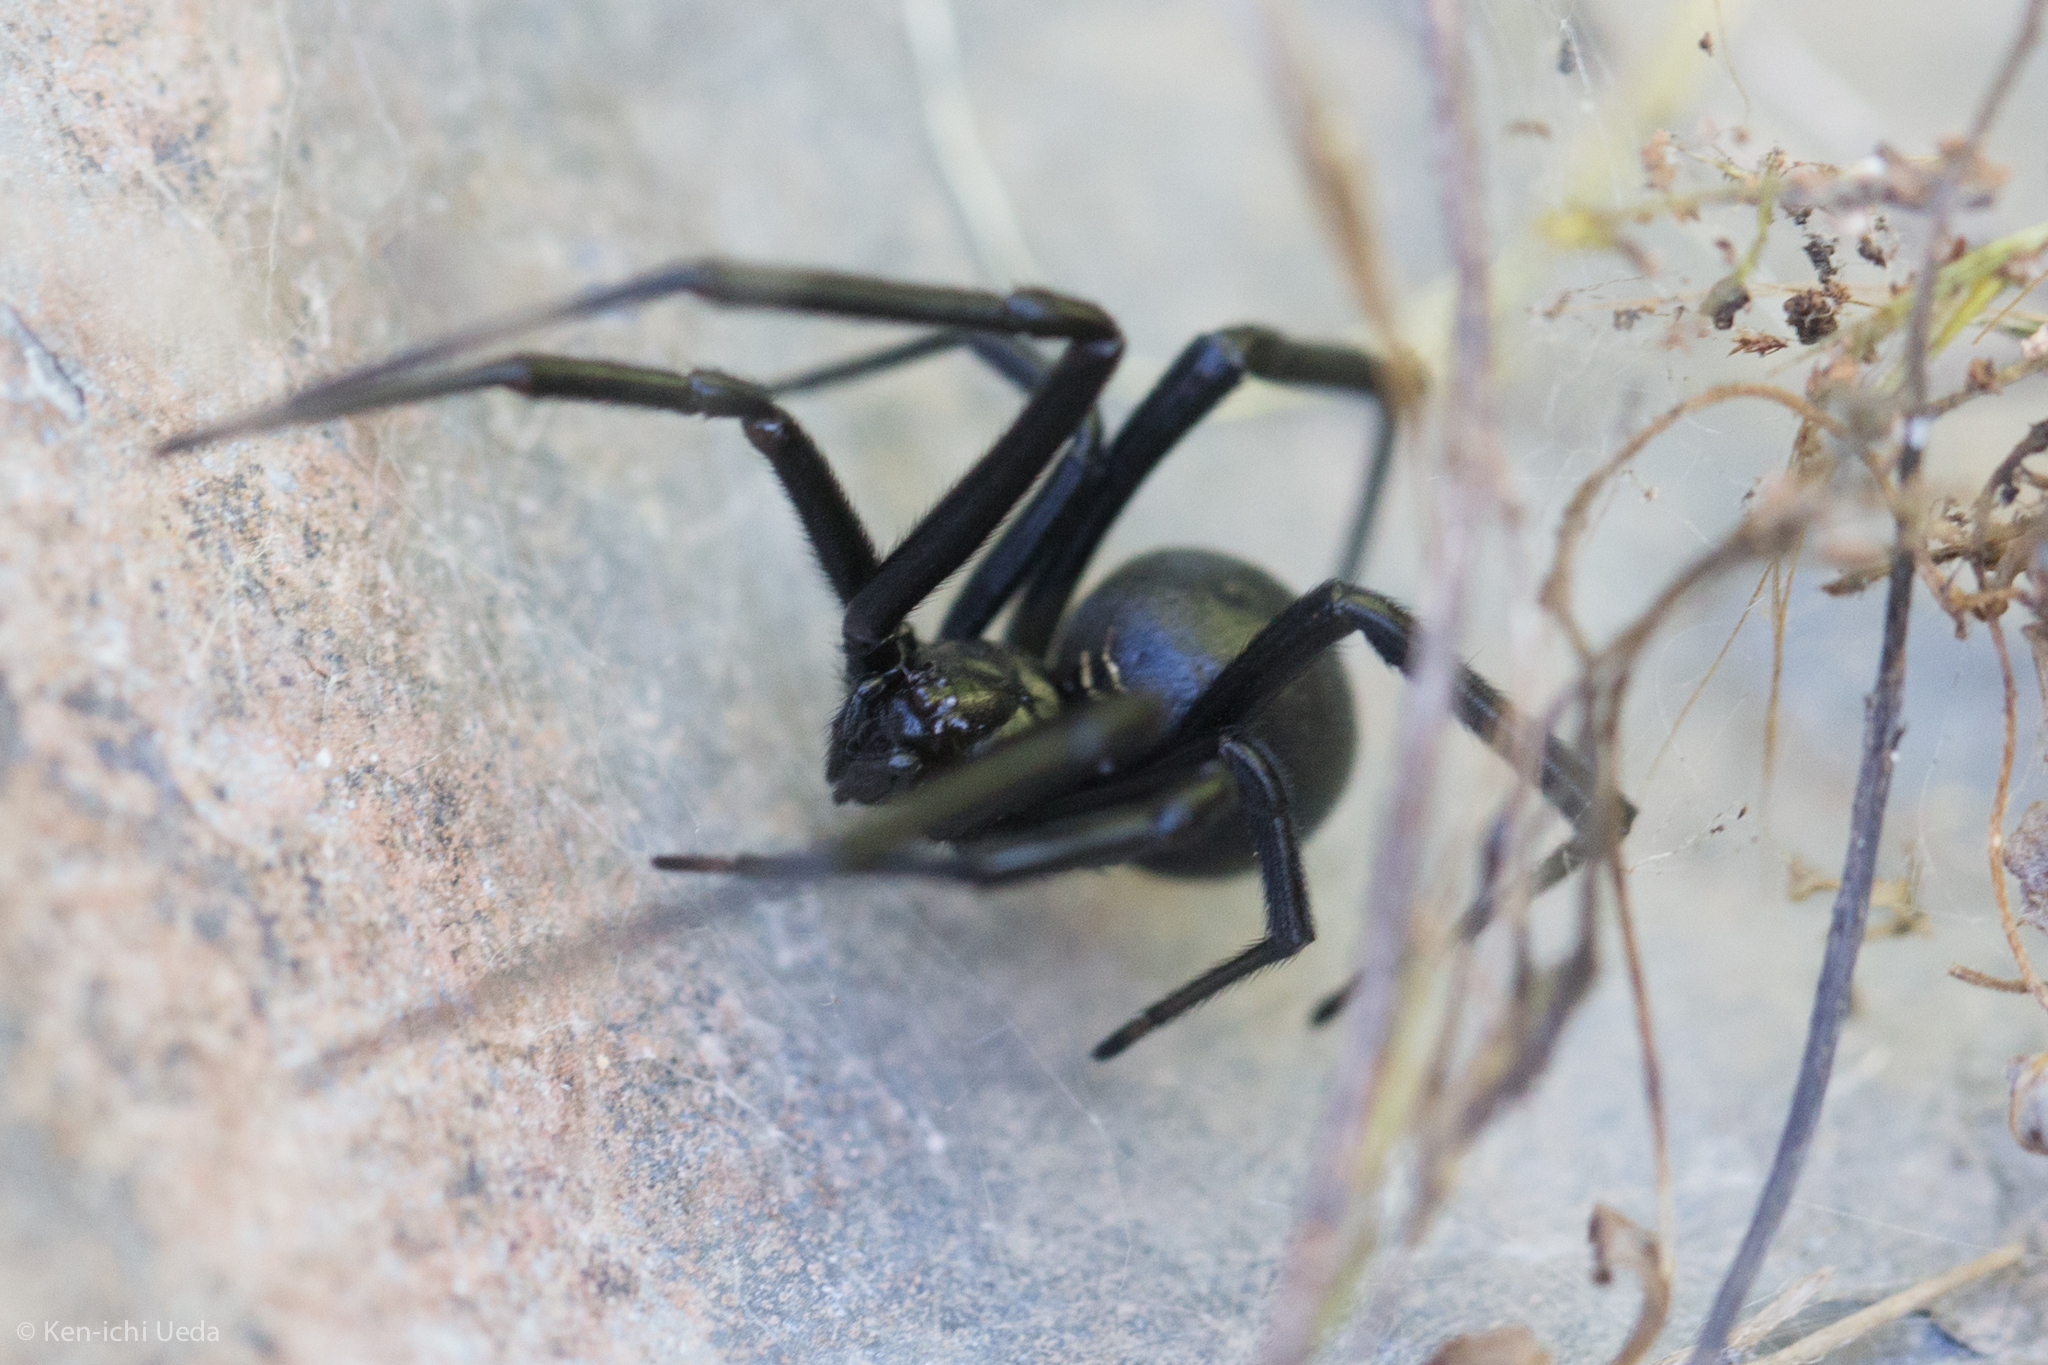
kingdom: Animalia
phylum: Arthropoda
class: Arachnida
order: Araneae
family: Theridiidae
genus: Latrodectus
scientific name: Latrodectus hesperus
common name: Western black widow
